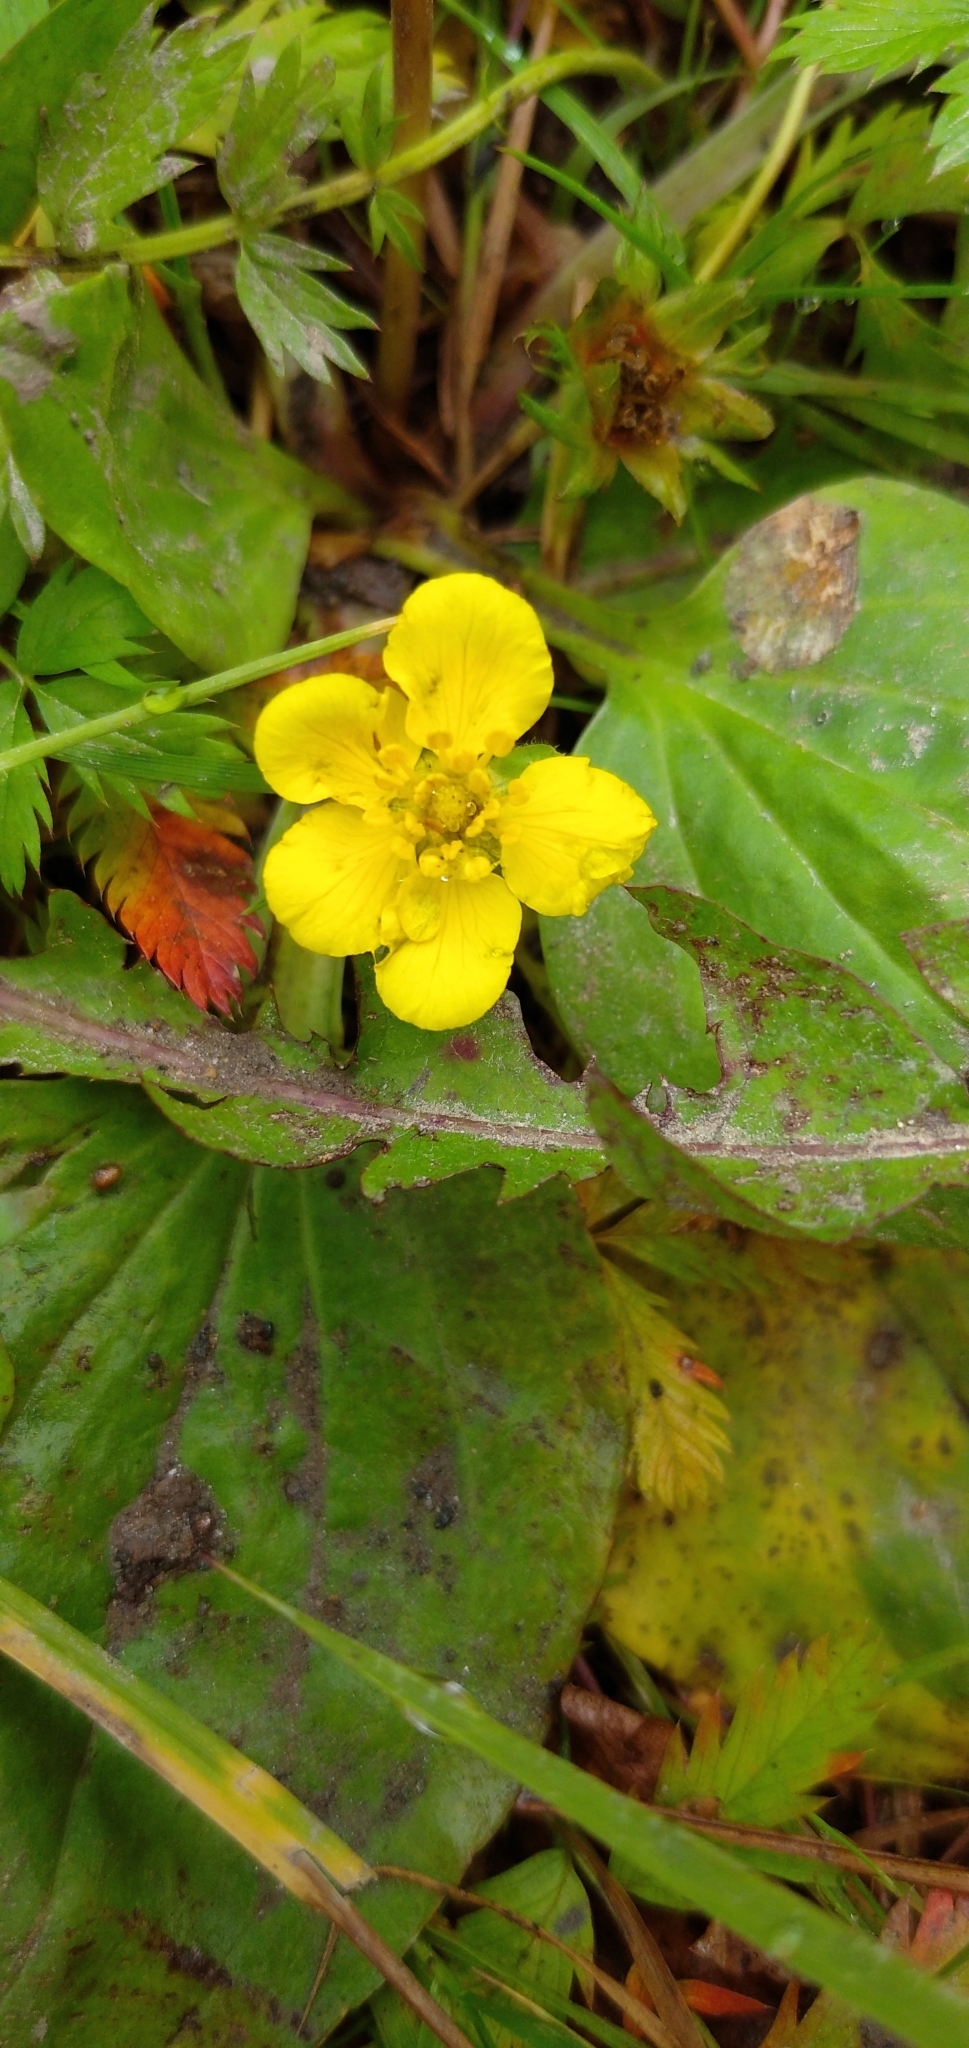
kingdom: Plantae
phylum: Tracheophyta
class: Magnoliopsida
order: Rosales
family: Rosaceae
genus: Argentina
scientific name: Argentina anserina
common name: Common silverweed
